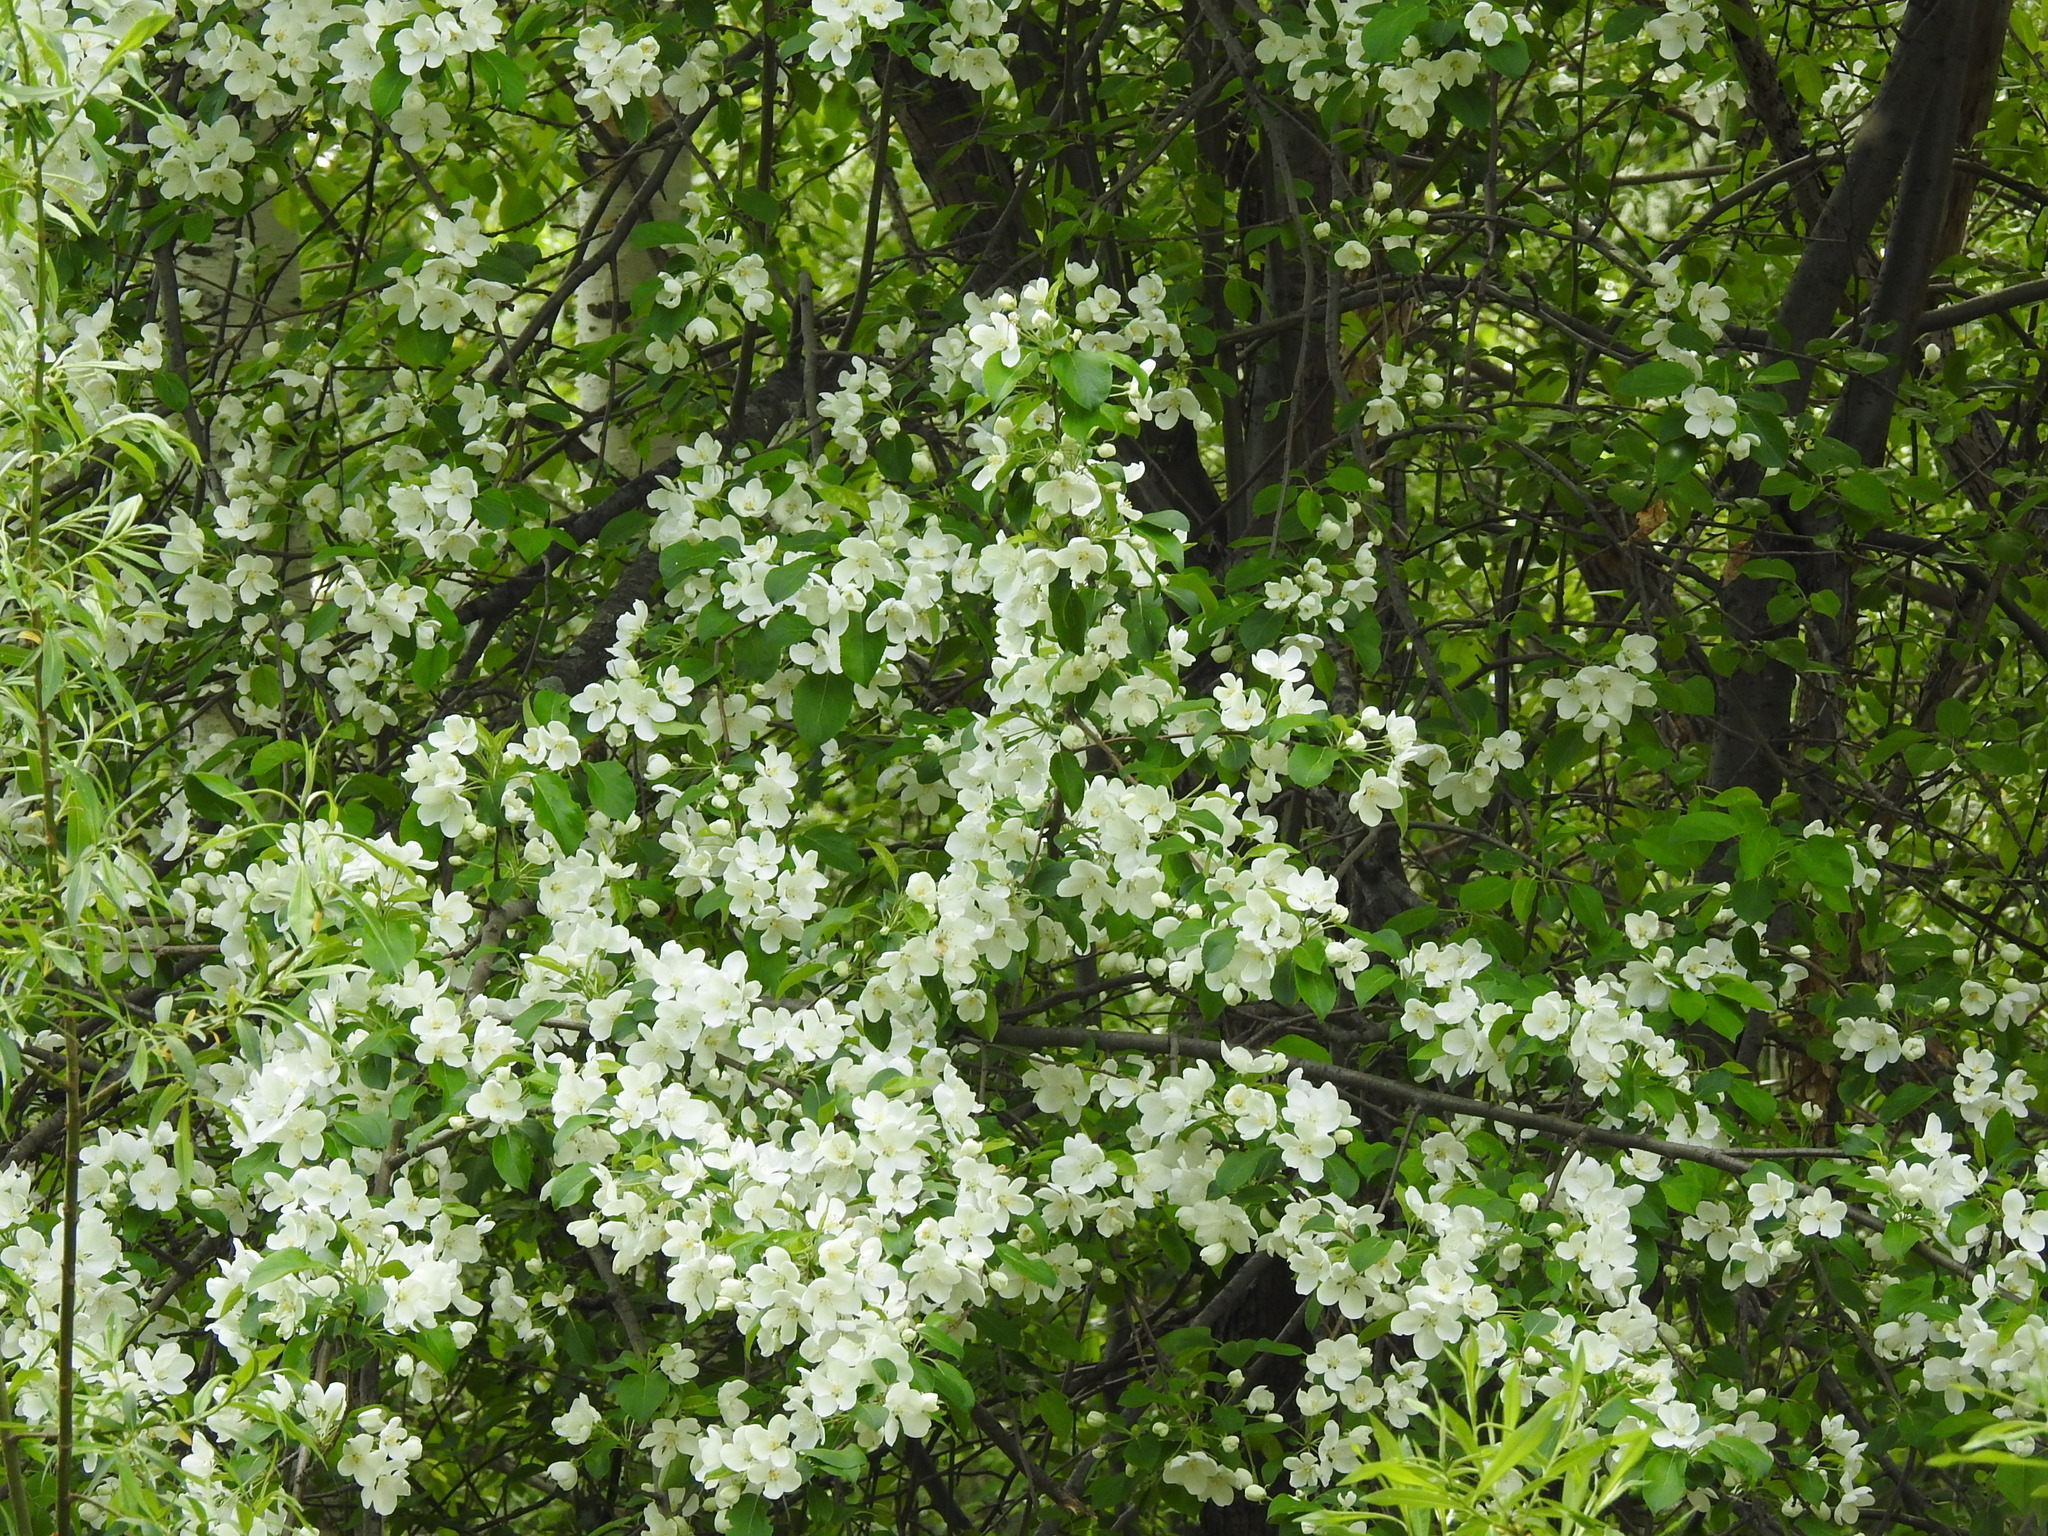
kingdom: Plantae
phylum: Tracheophyta
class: Magnoliopsida
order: Rosales
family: Rosaceae
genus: Malus
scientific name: Malus baccata
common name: Siberian crab
